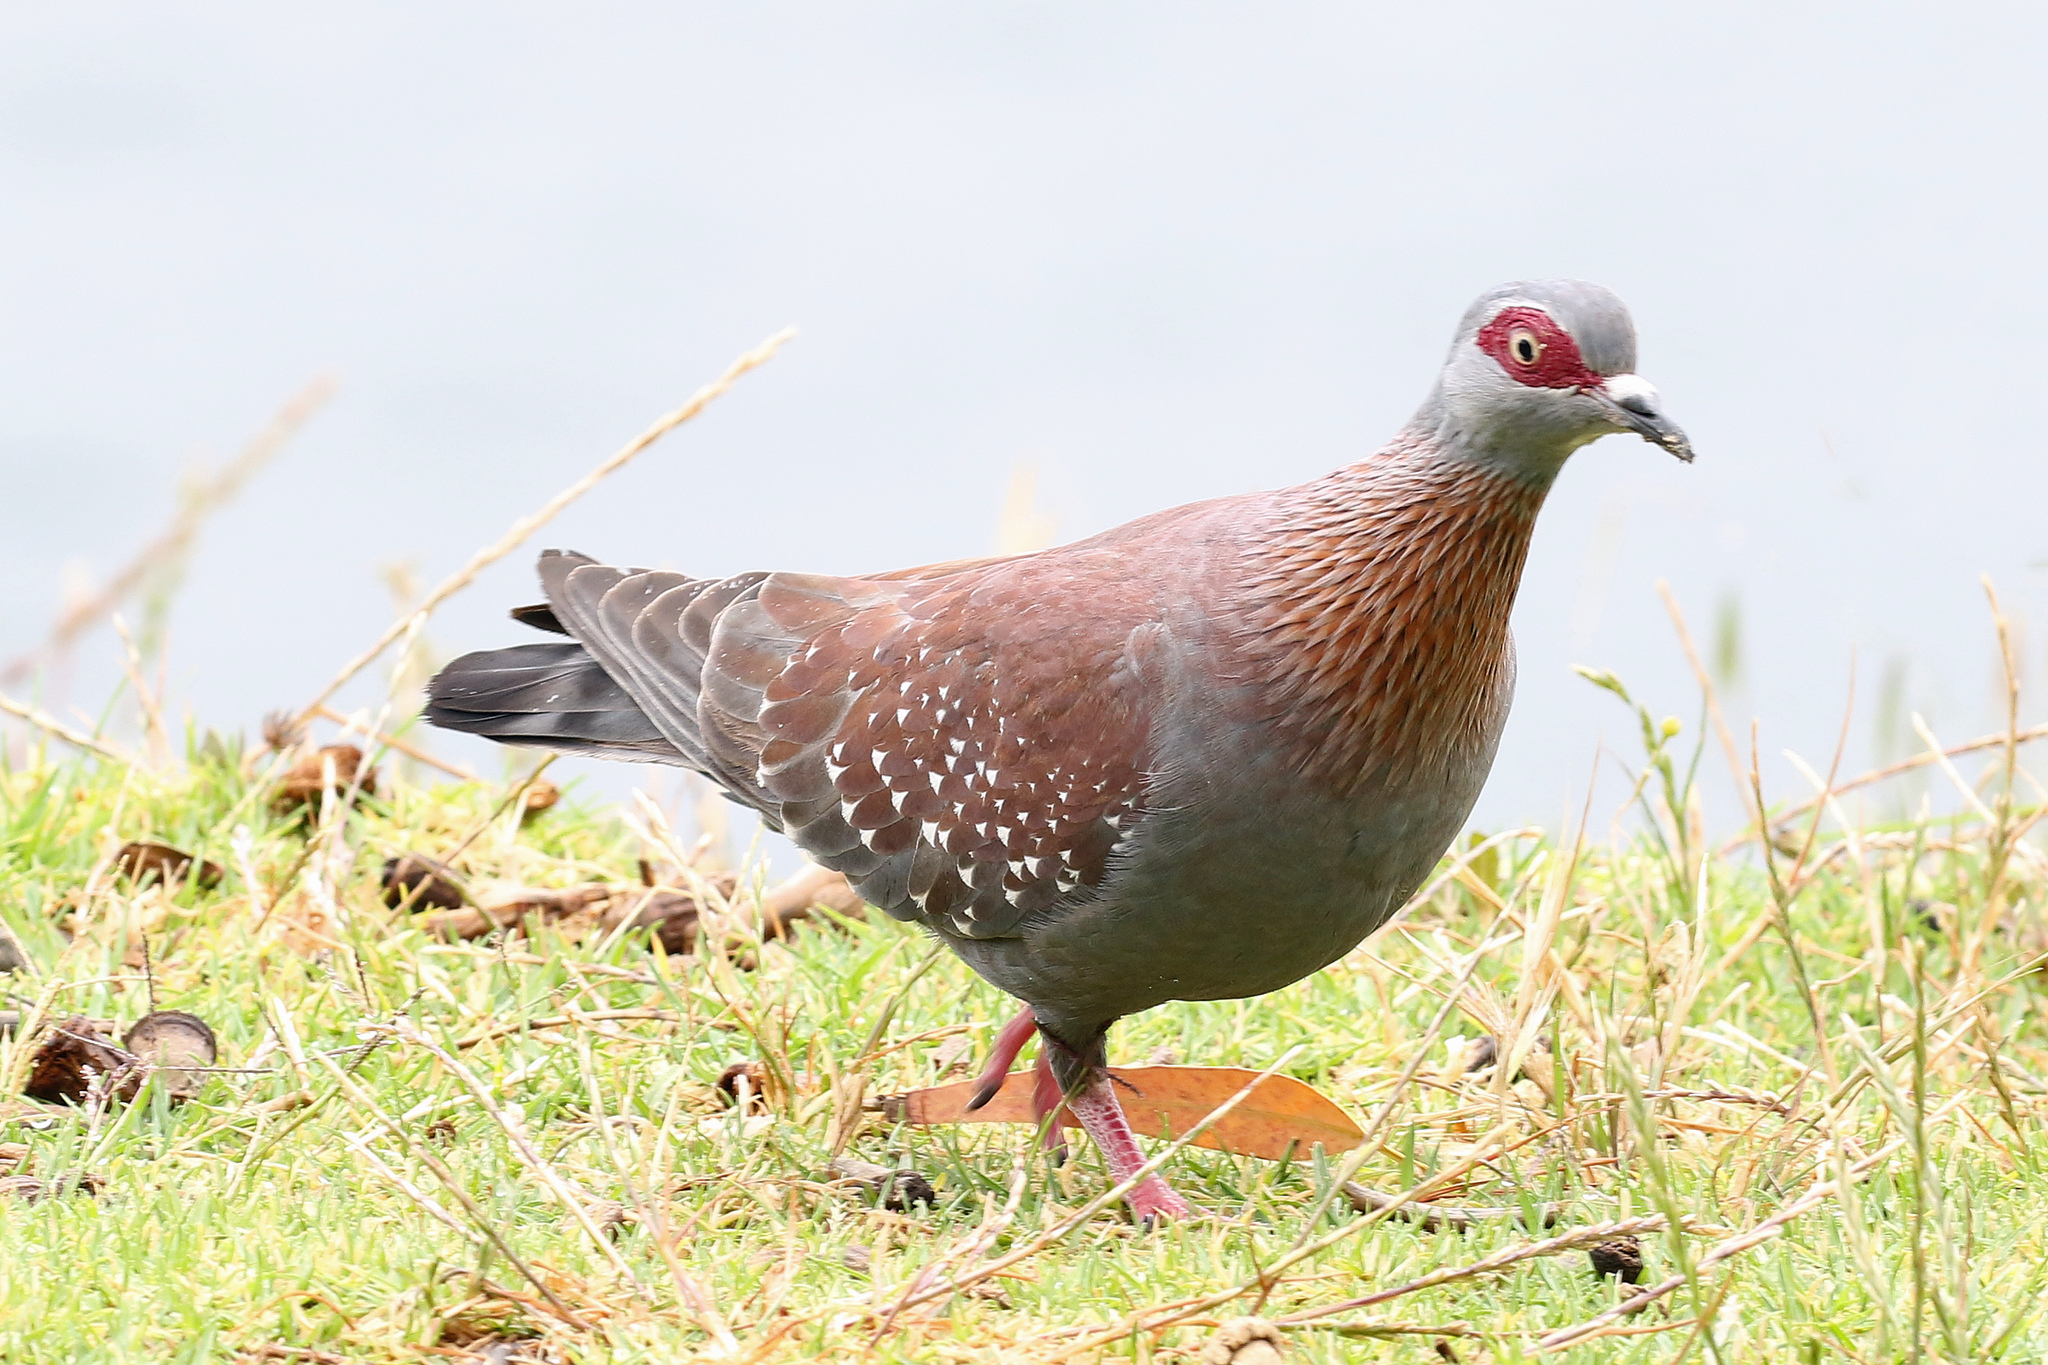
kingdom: Animalia
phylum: Chordata
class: Aves
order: Columbiformes
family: Columbidae
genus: Columba
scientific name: Columba guinea
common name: Speckled pigeon
